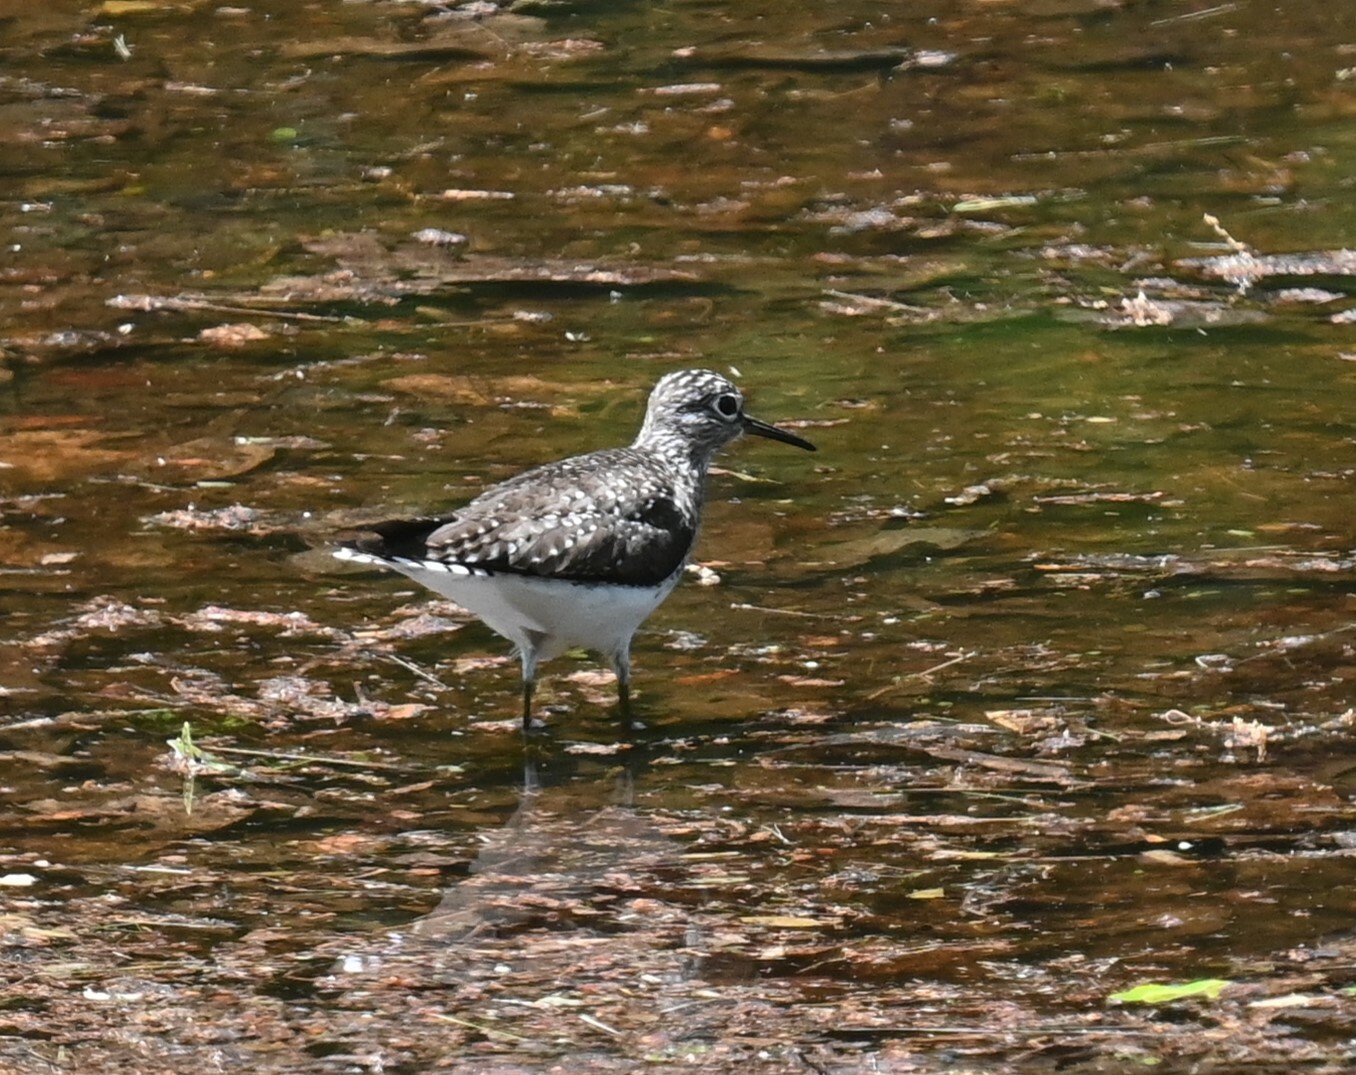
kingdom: Animalia
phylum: Chordata
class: Aves
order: Charadriiformes
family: Scolopacidae
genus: Tringa
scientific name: Tringa solitaria
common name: Solitary sandpiper
